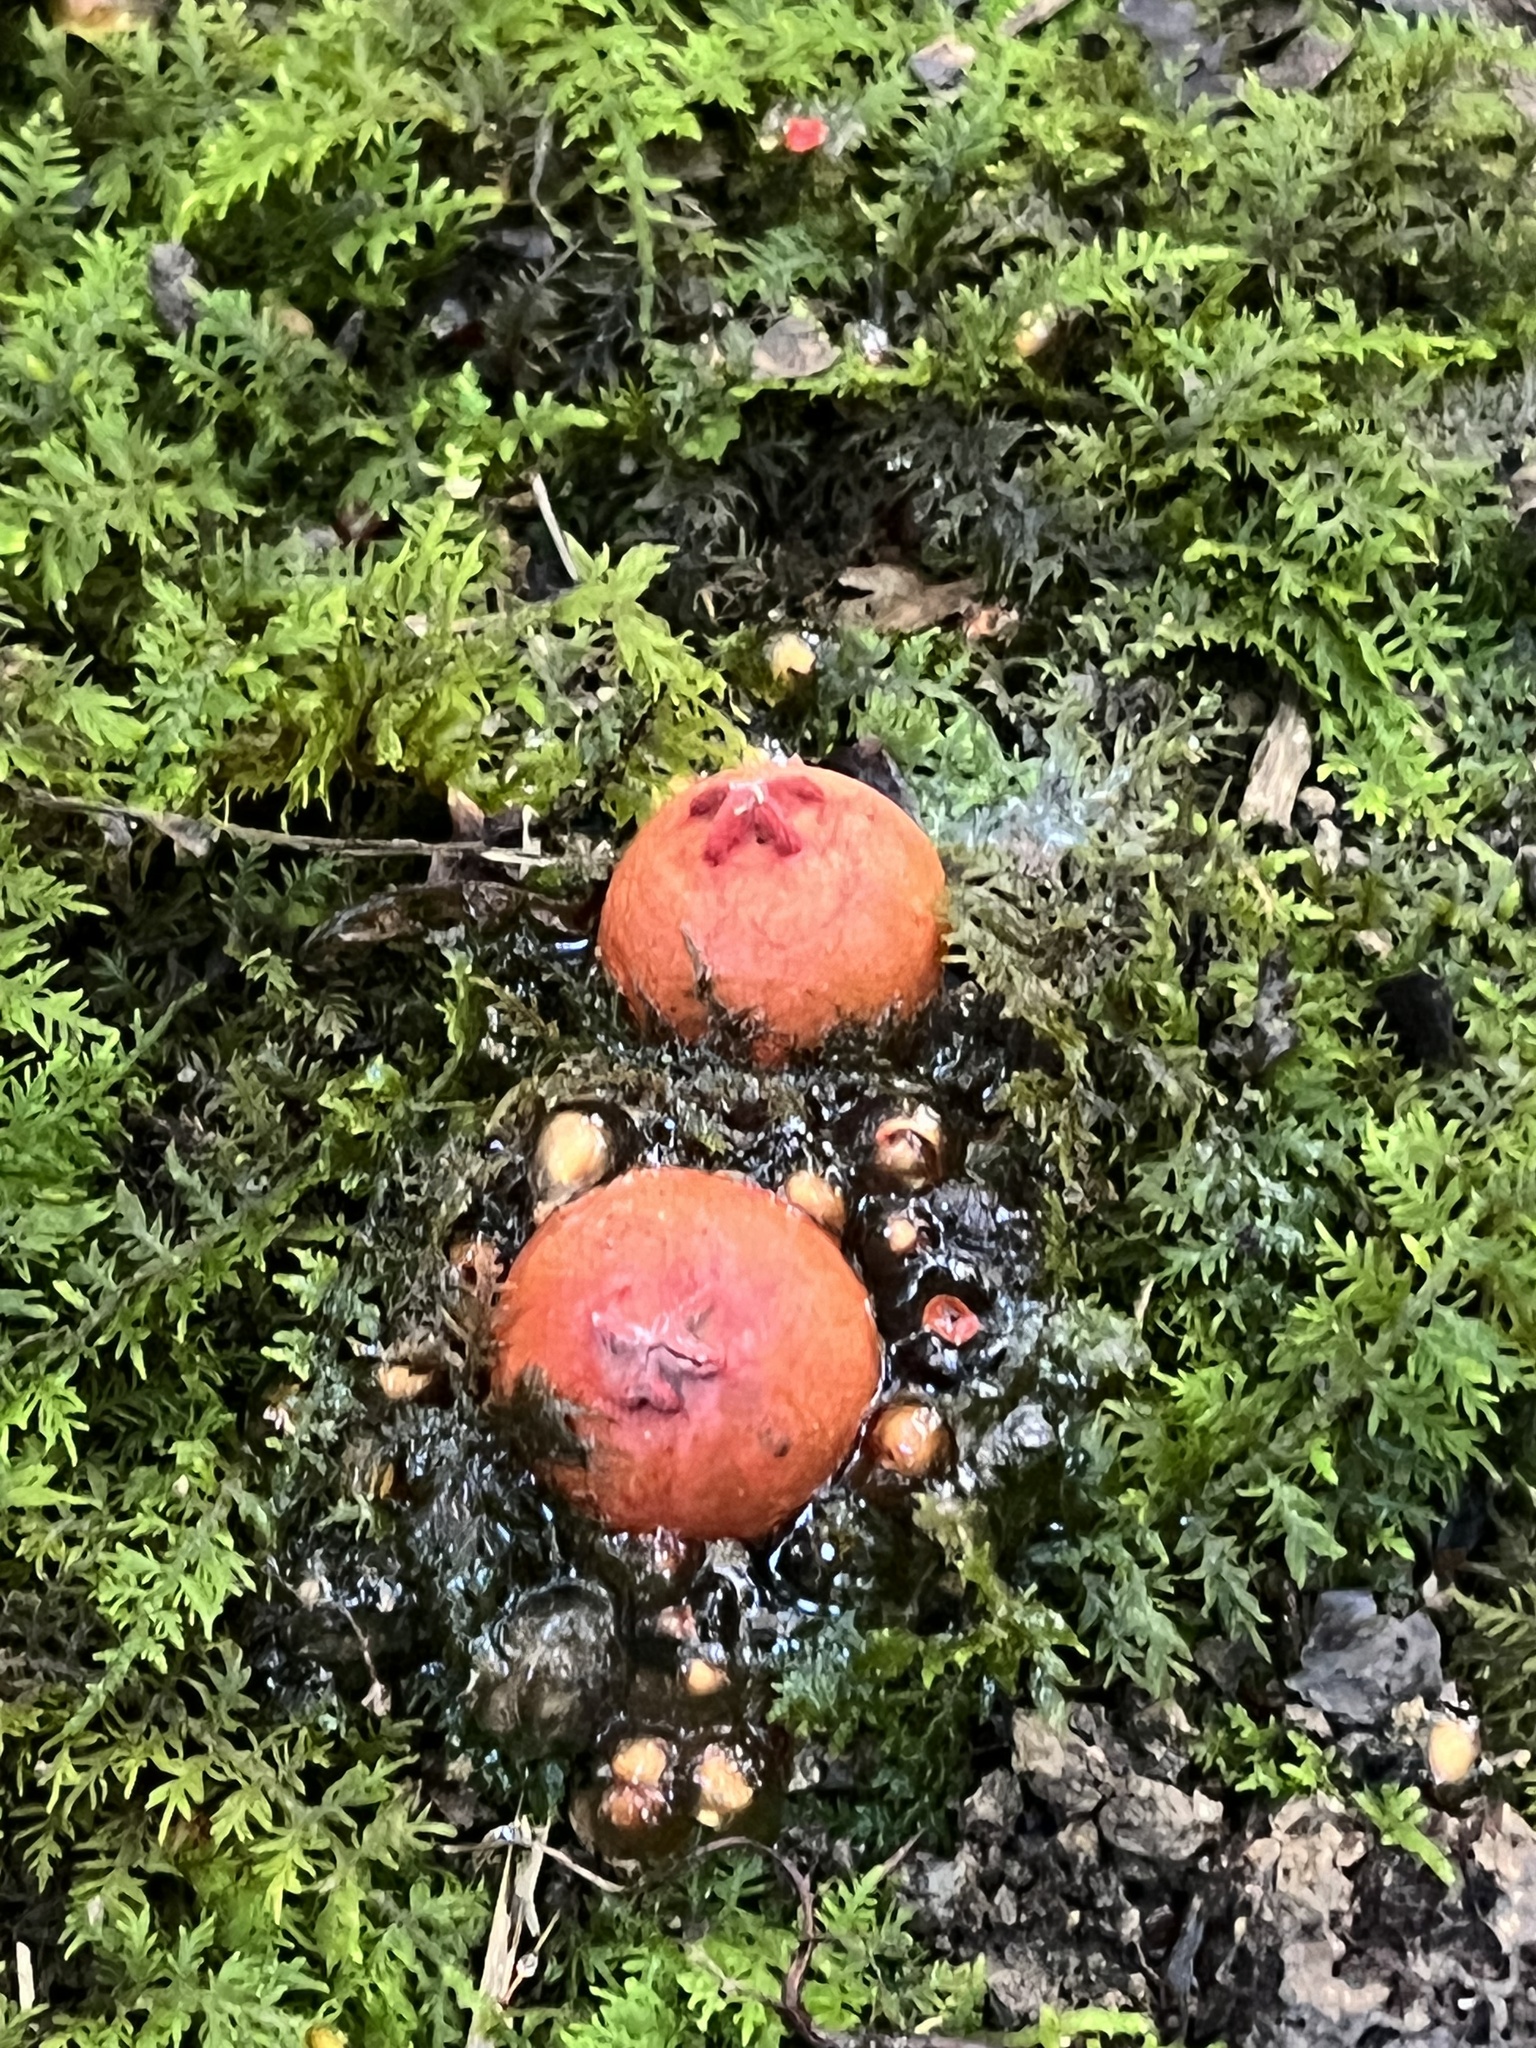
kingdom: Fungi
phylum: Basidiomycota
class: Agaricomycetes
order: Boletales
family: Calostomataceae
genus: Calostoma
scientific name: Calostoma cinnabarinum
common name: Stalked puffball-in-aspic
